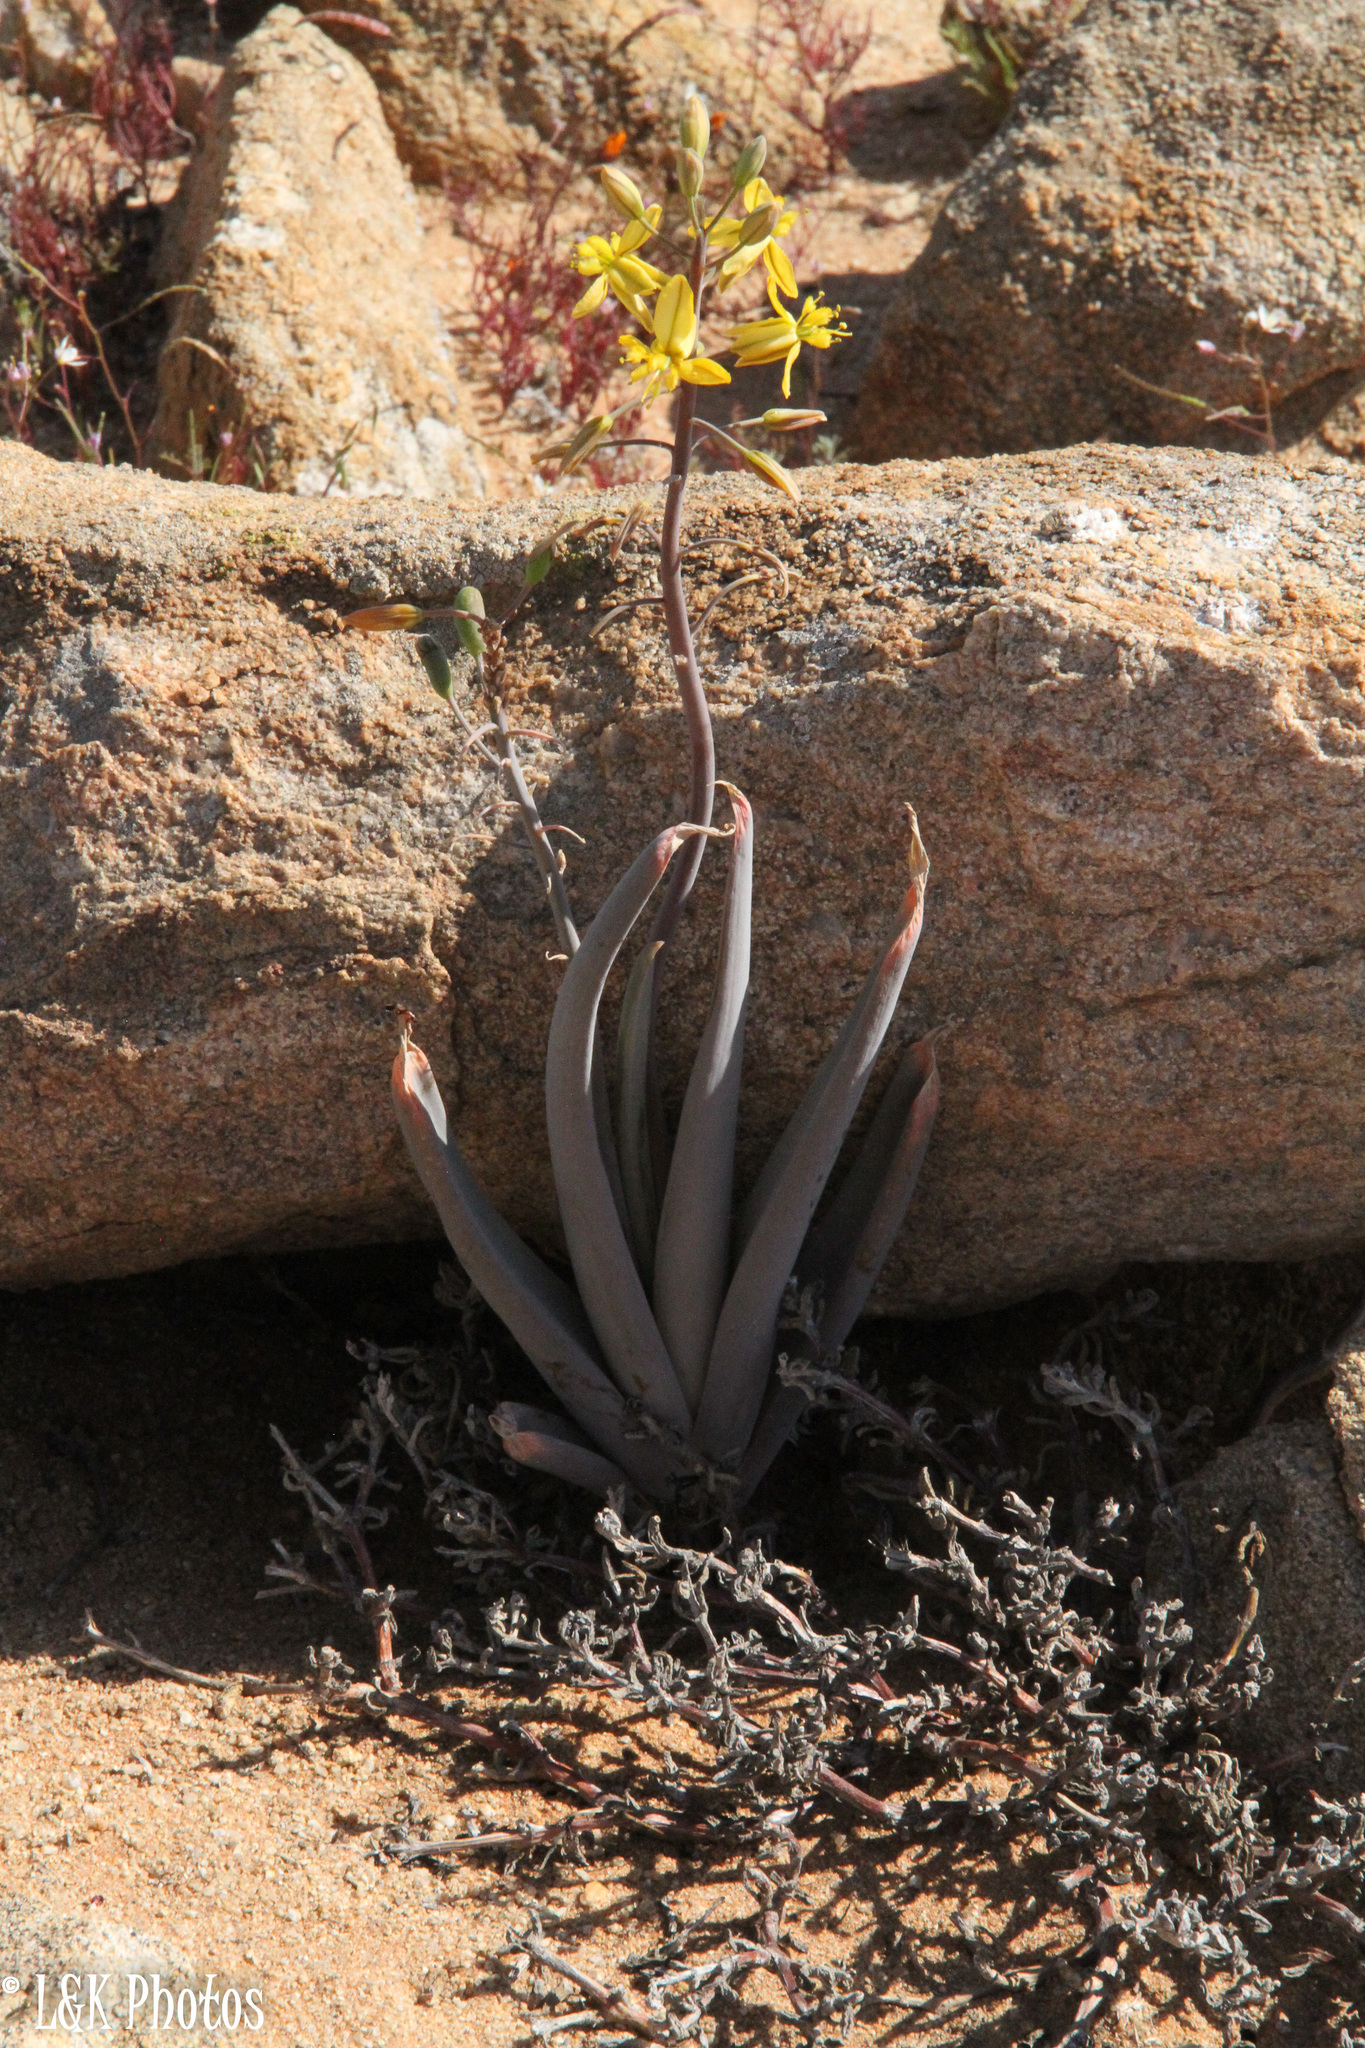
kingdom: Plantae
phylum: Tracheophyta
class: Liliopsida
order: Asparagales
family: Asphodelaceae
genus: Bulbine
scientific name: Bulbine praemorsa
